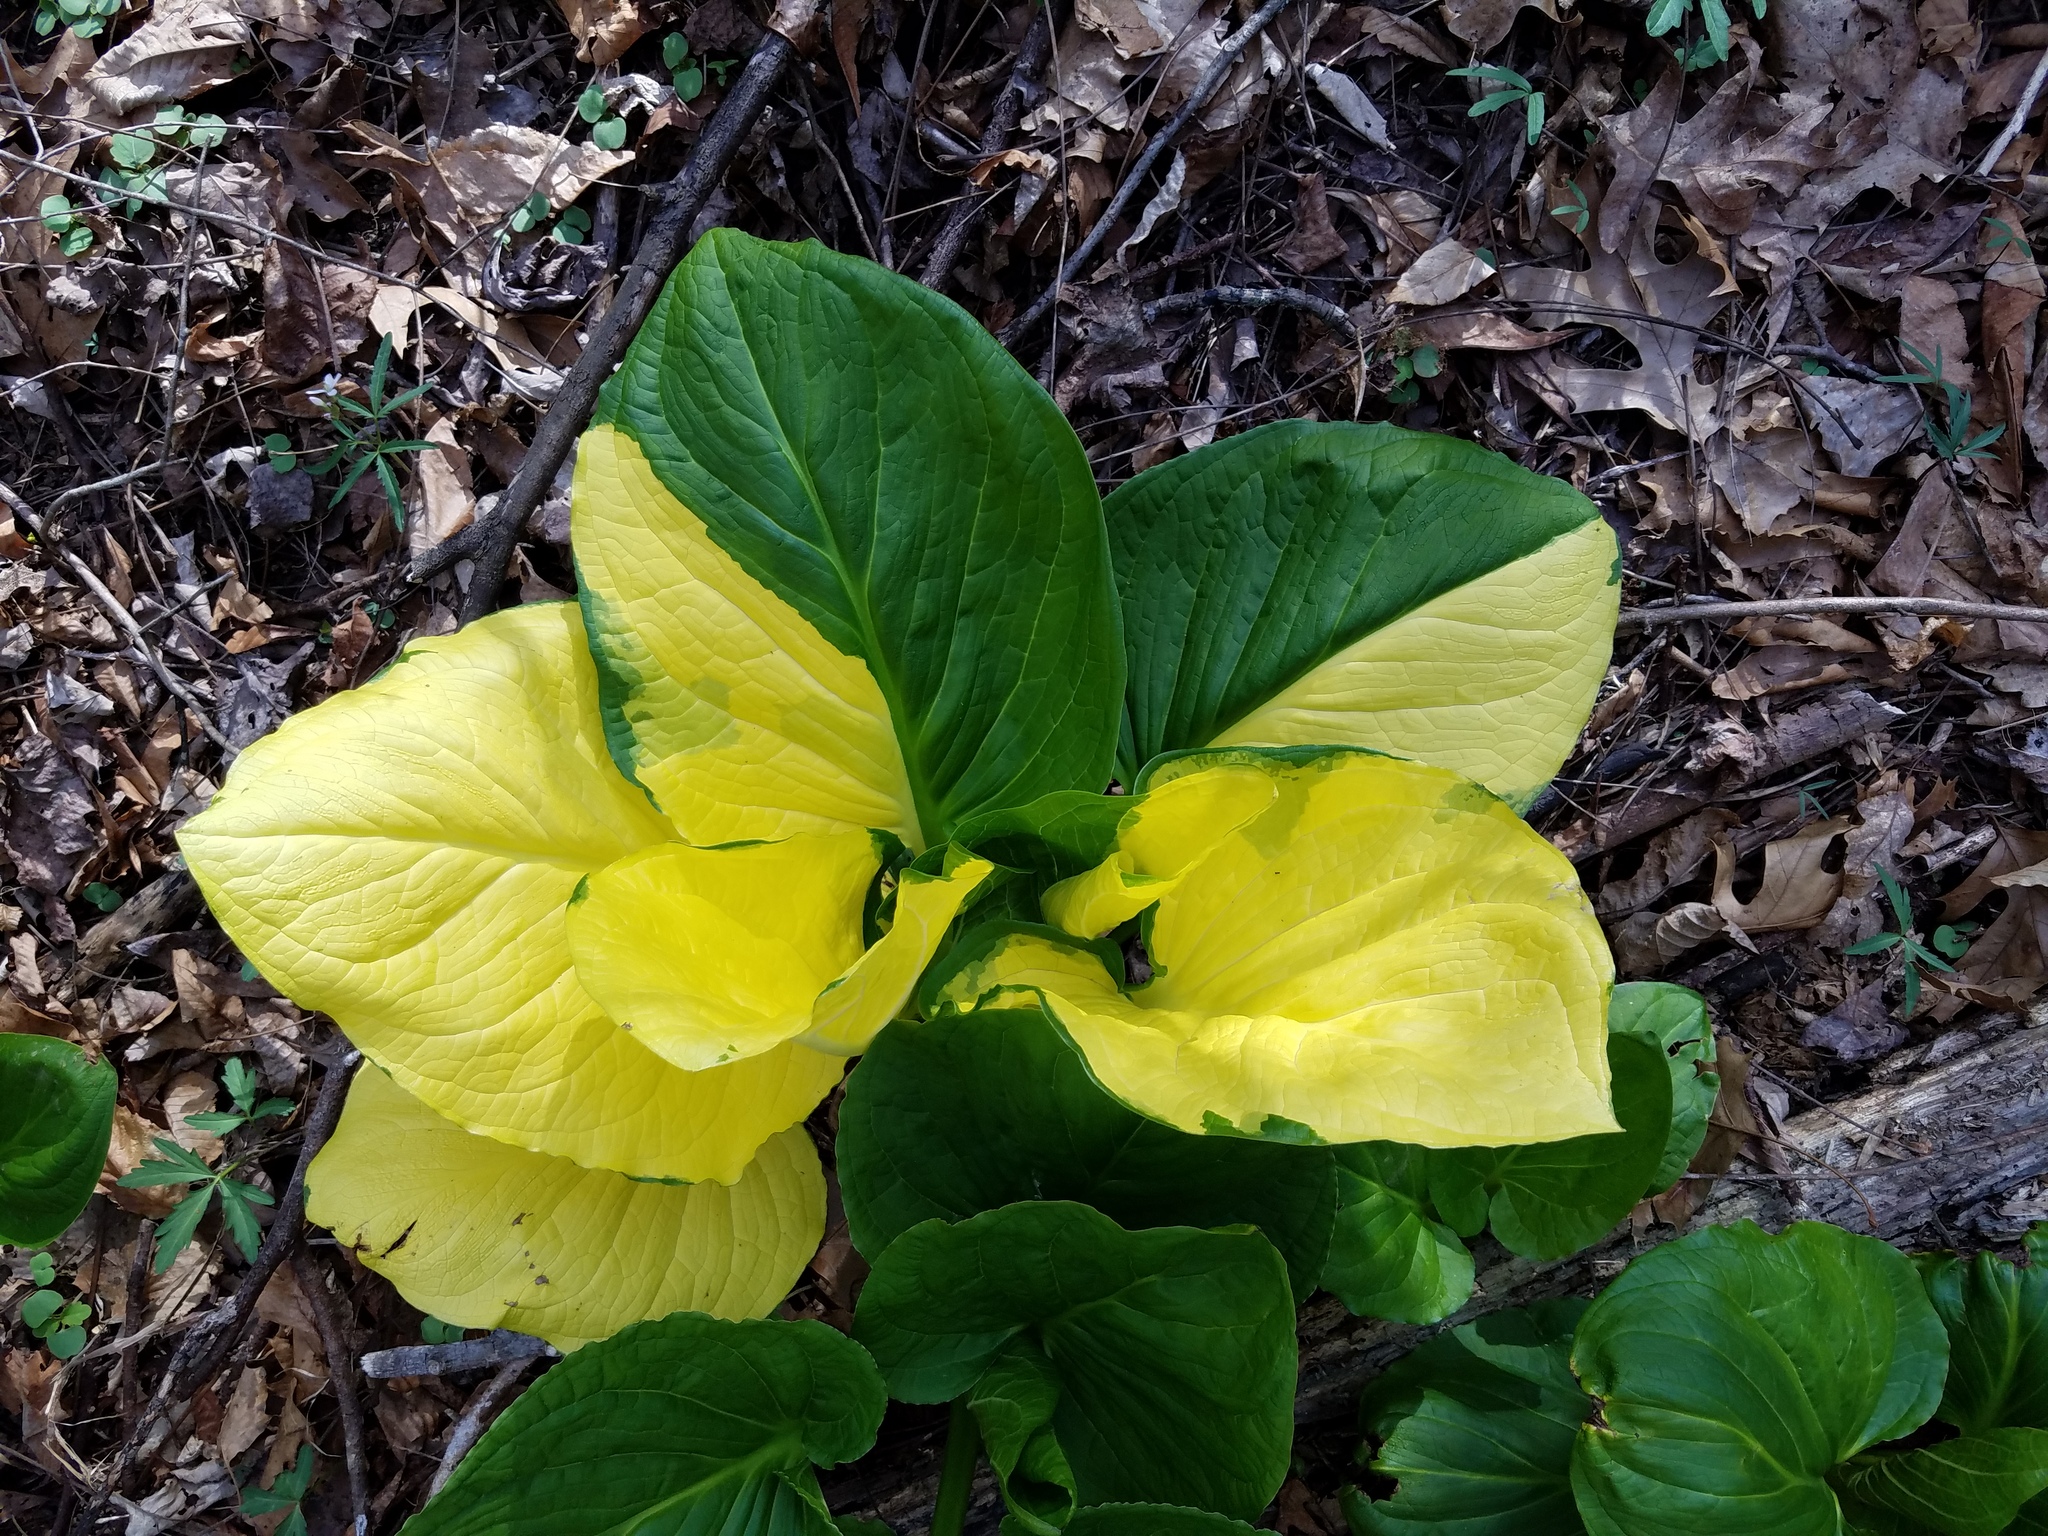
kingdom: Plantae
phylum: Tracheophyta
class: Liliopsida
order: Alismatales
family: Araceae
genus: Symplocarpus
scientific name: Symplocarpus foetidus
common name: Eastern skunk cabbage
